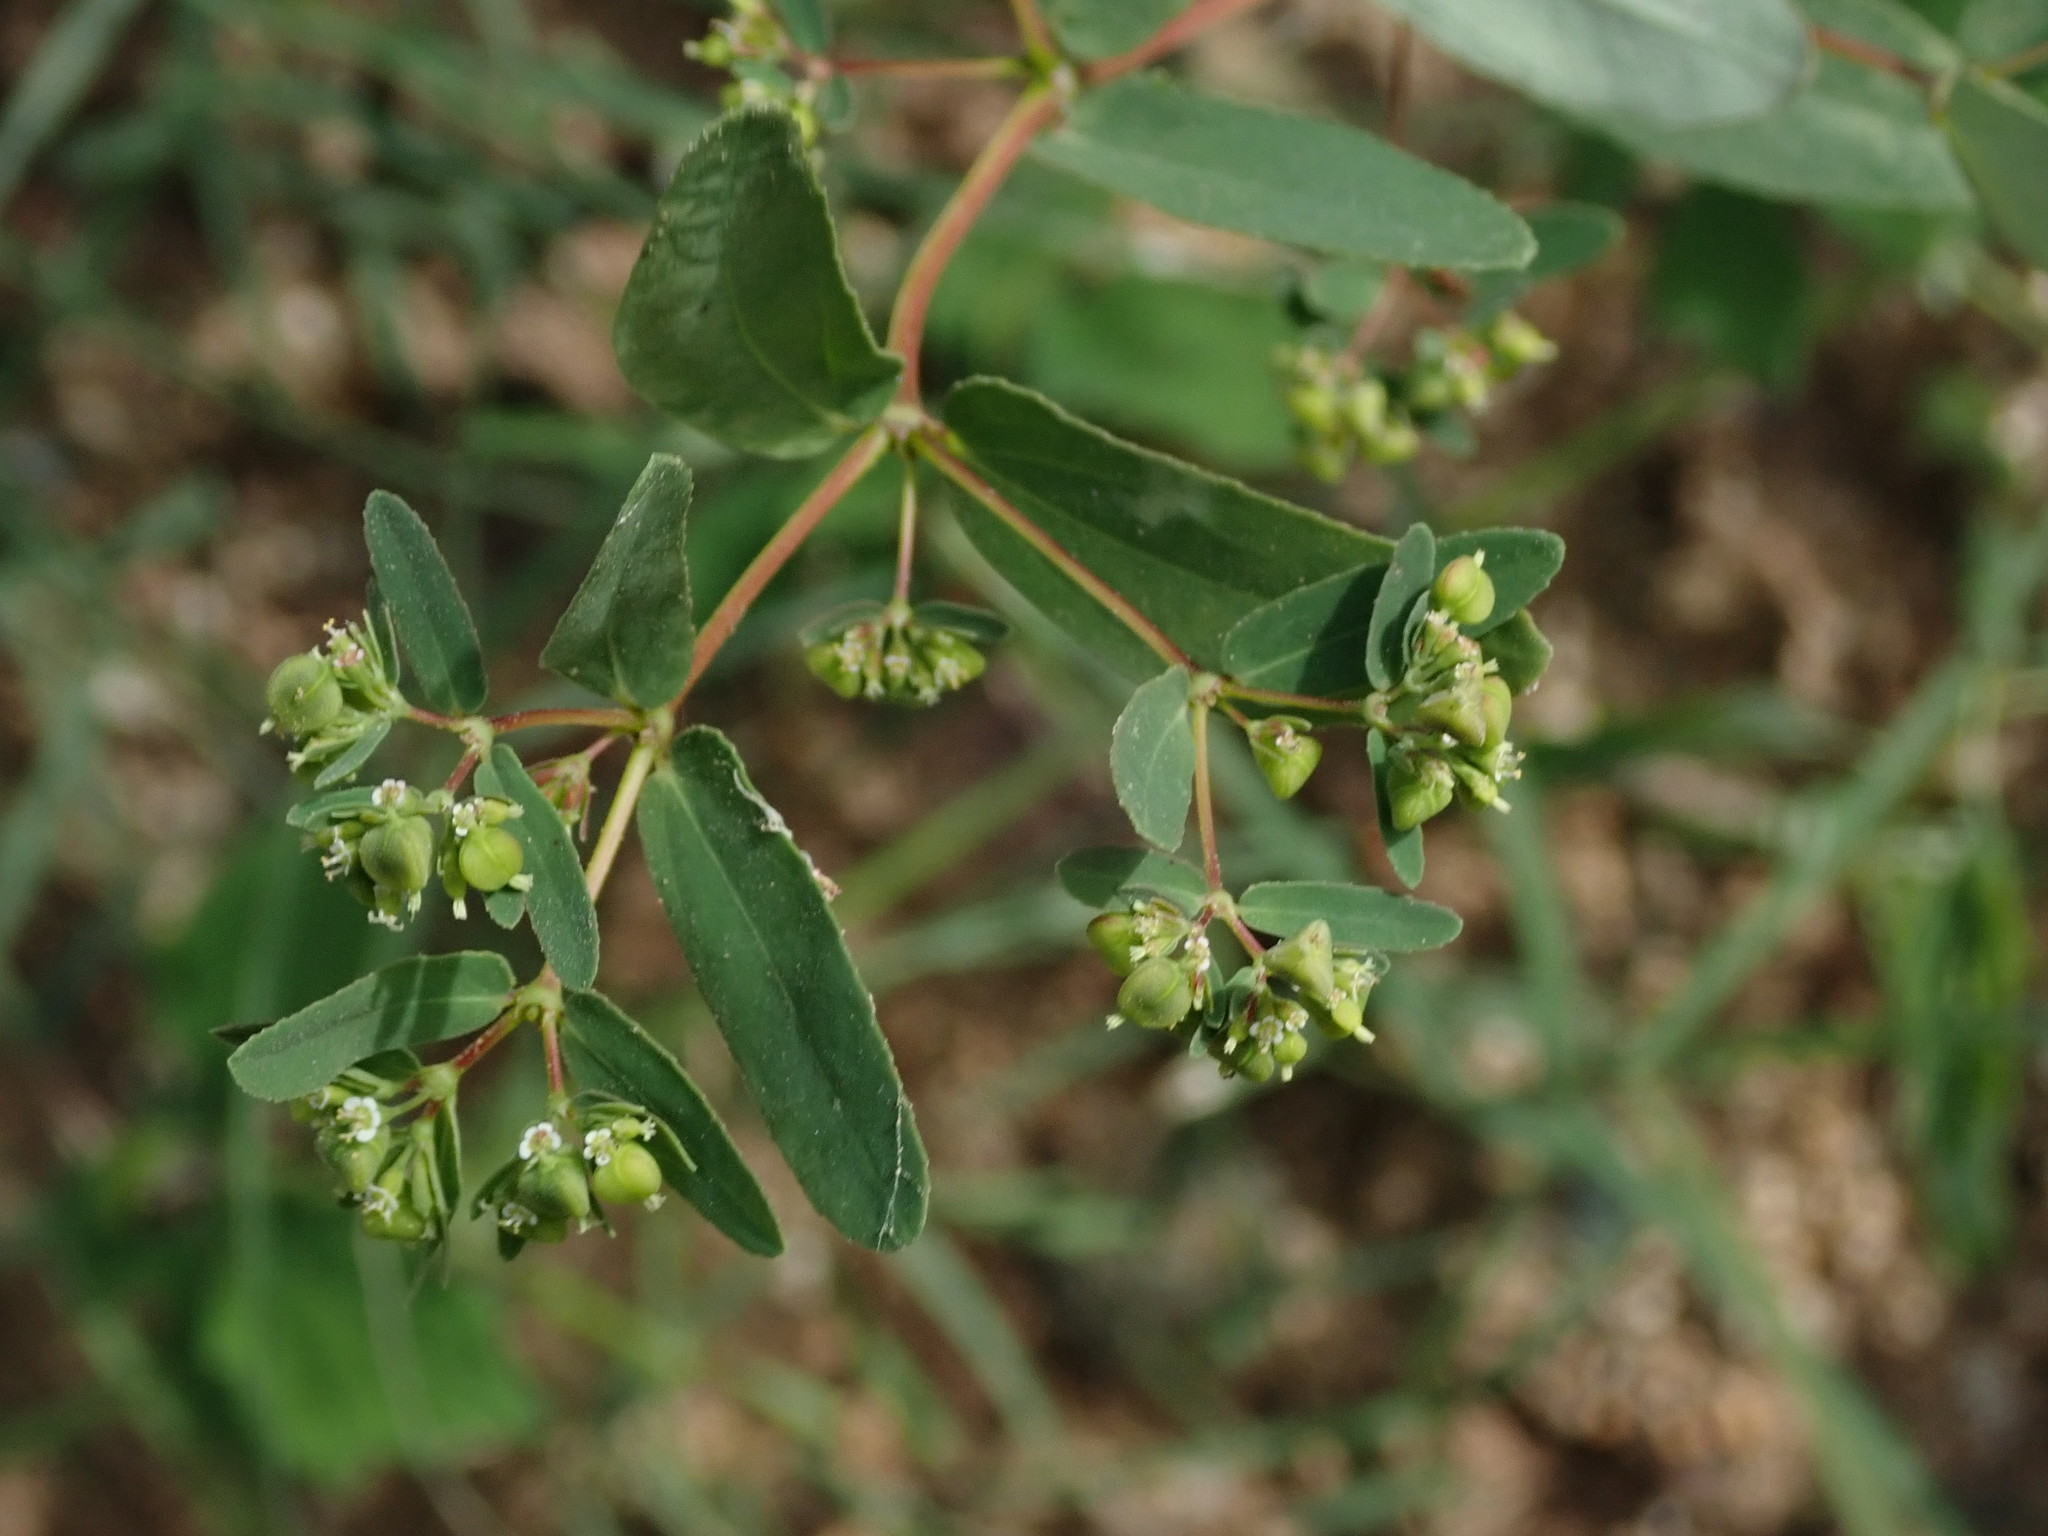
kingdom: Plantae
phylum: Tracheophyta
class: Magnoliopsida
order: Malpighiales
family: Euphorbiaceae
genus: Euphorbia
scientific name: Euphorbia hyssopifolia
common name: Hyssopleaf sandmat
